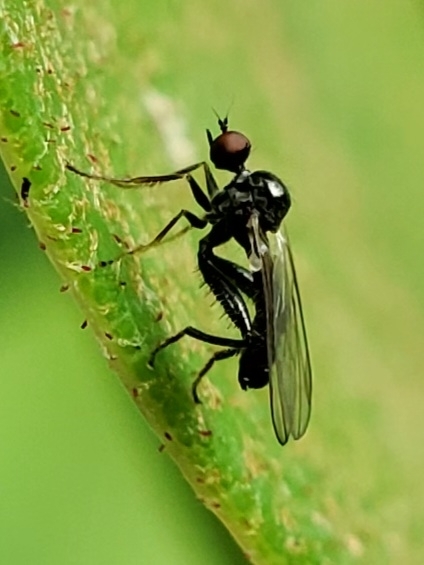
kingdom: Animalia
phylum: Arthropoda
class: Insecta
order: Diptera
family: Hybotidae
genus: Hybos
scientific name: Hybos reversus
